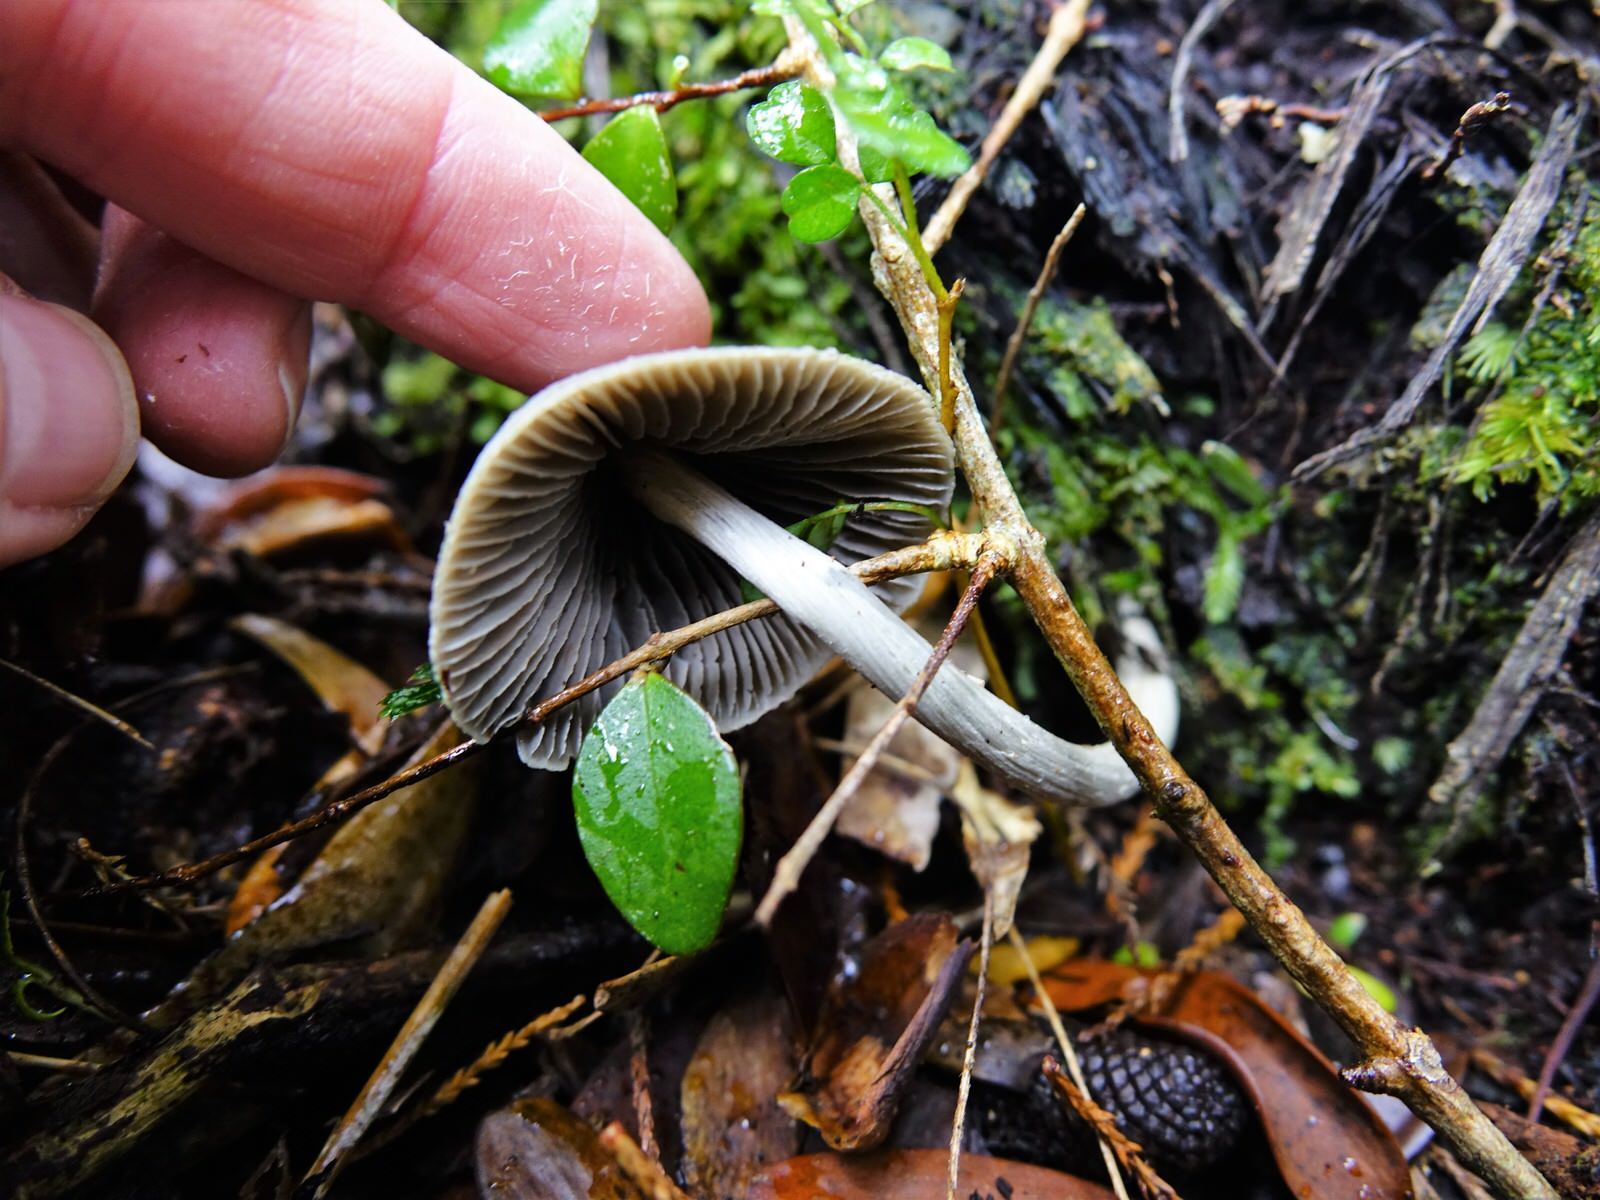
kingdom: Fungi
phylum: Basidiomycota
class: Agaricomycetes
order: Agaricales
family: Entolomataceae
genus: Entoloma
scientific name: Entoloma canoconicum
